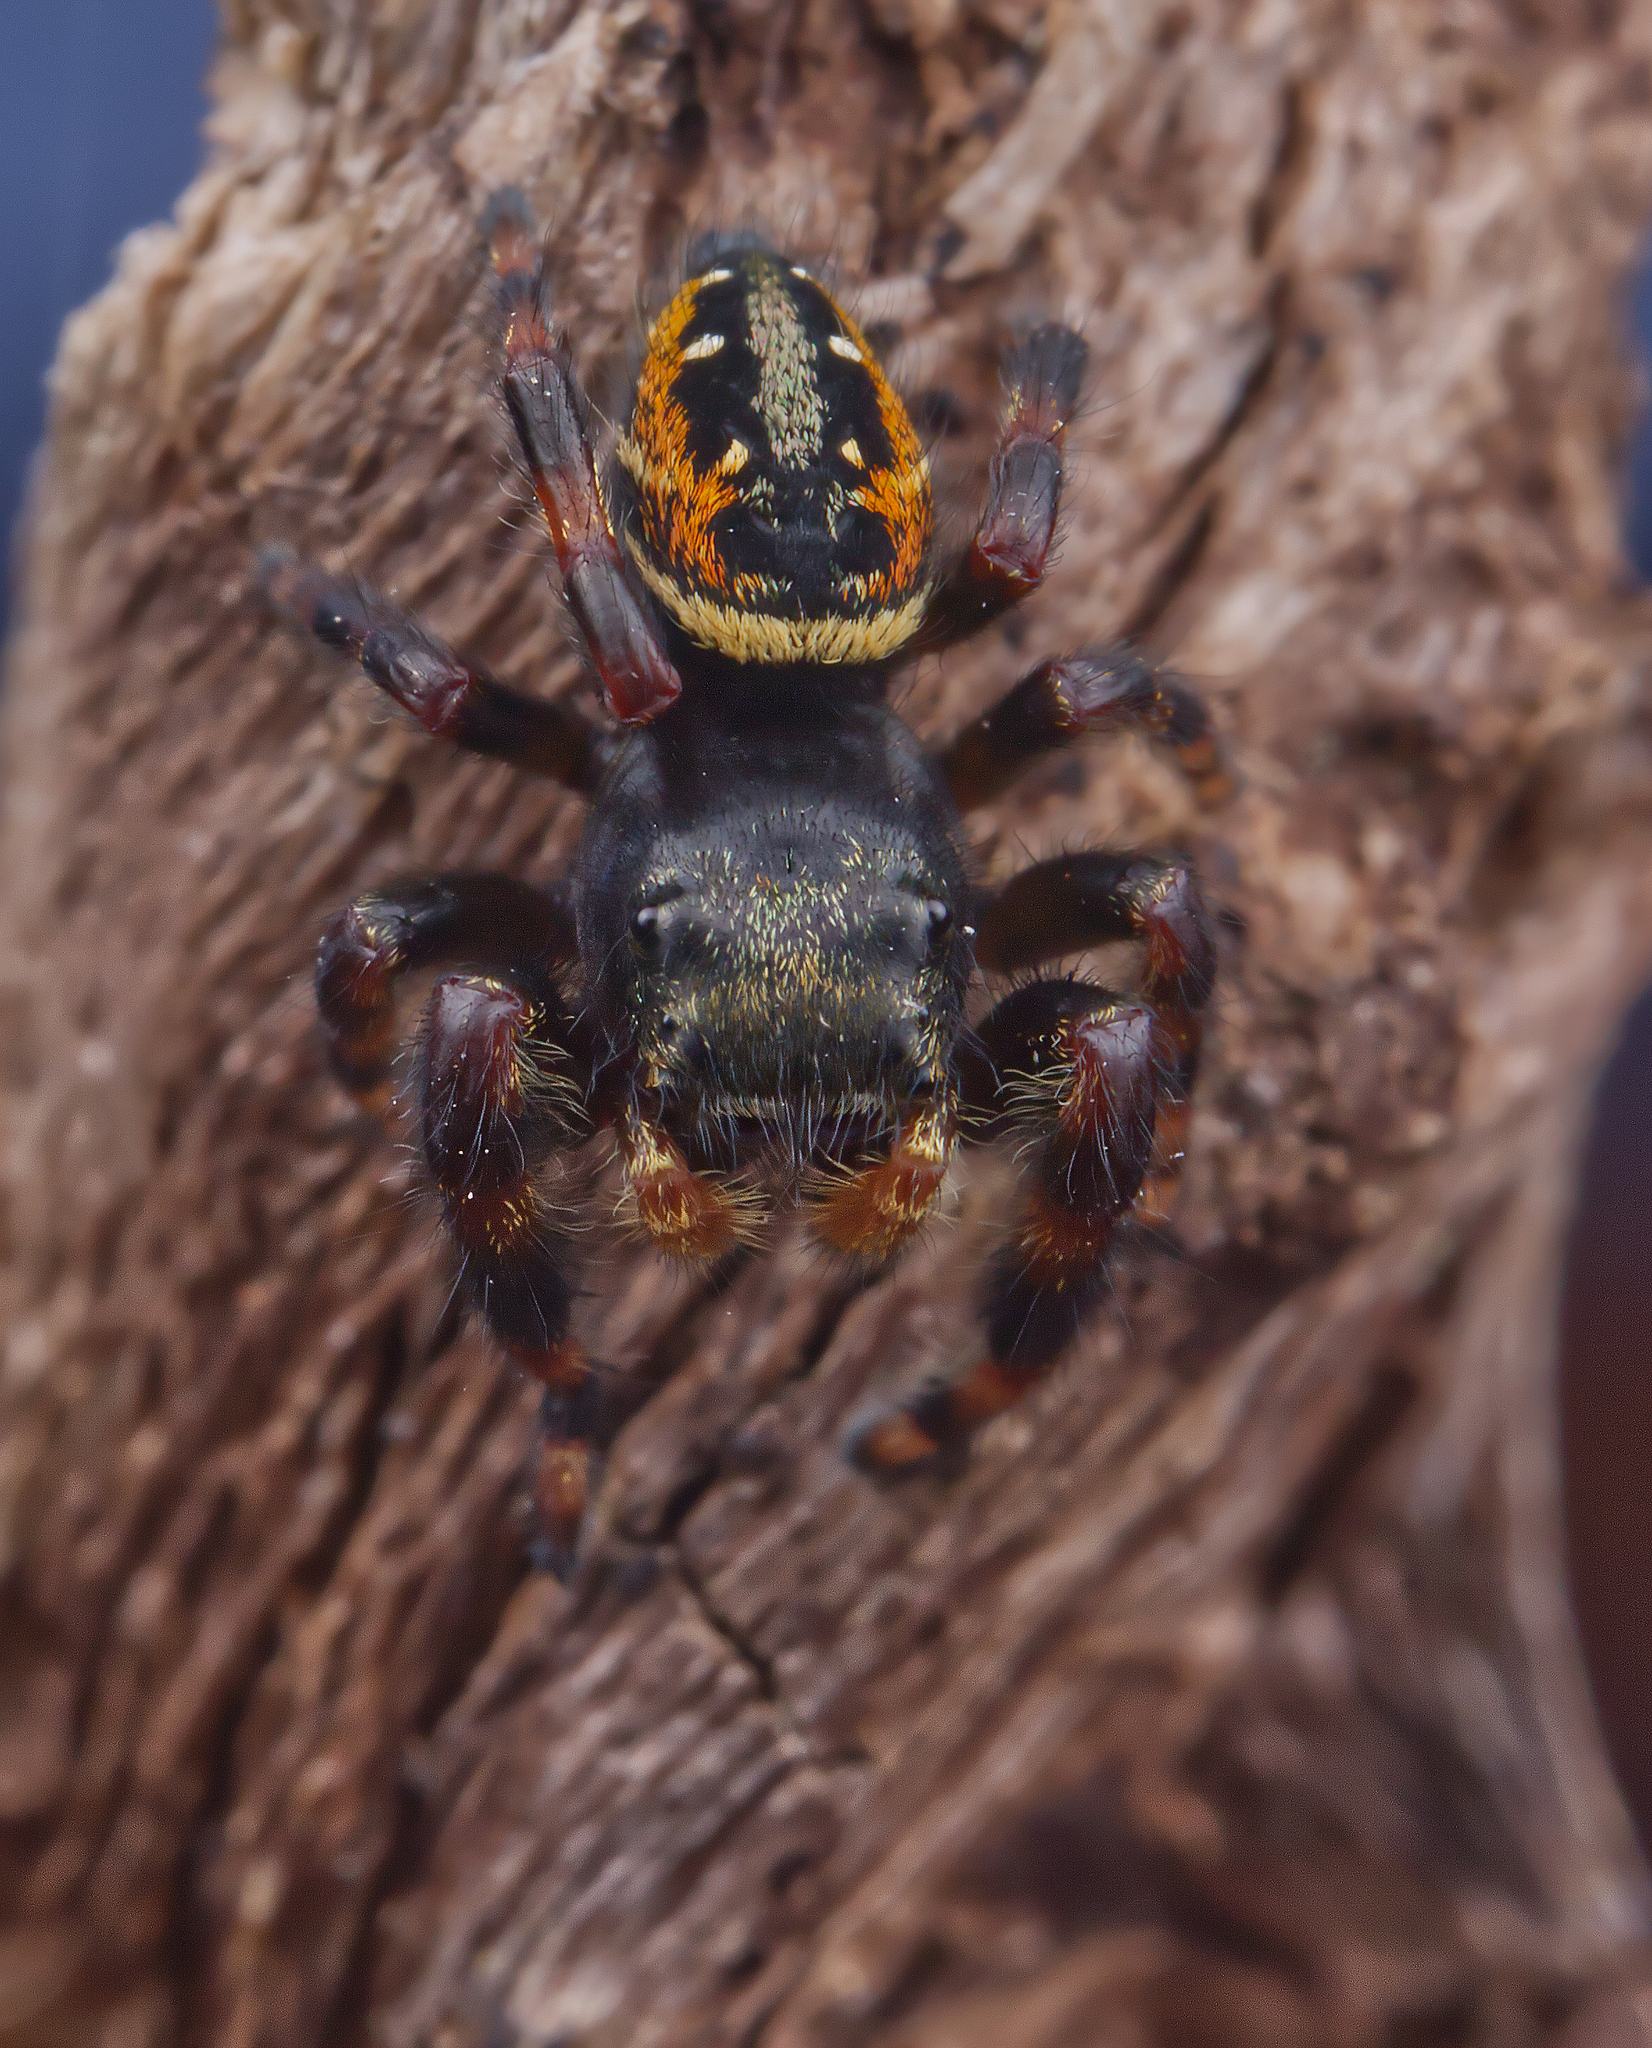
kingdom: Animalia
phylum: Arthropoda
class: Arachnida
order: Araneae
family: Salticidae
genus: Phidippus
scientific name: Phidippus clarus
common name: Brilliant jumping spider
